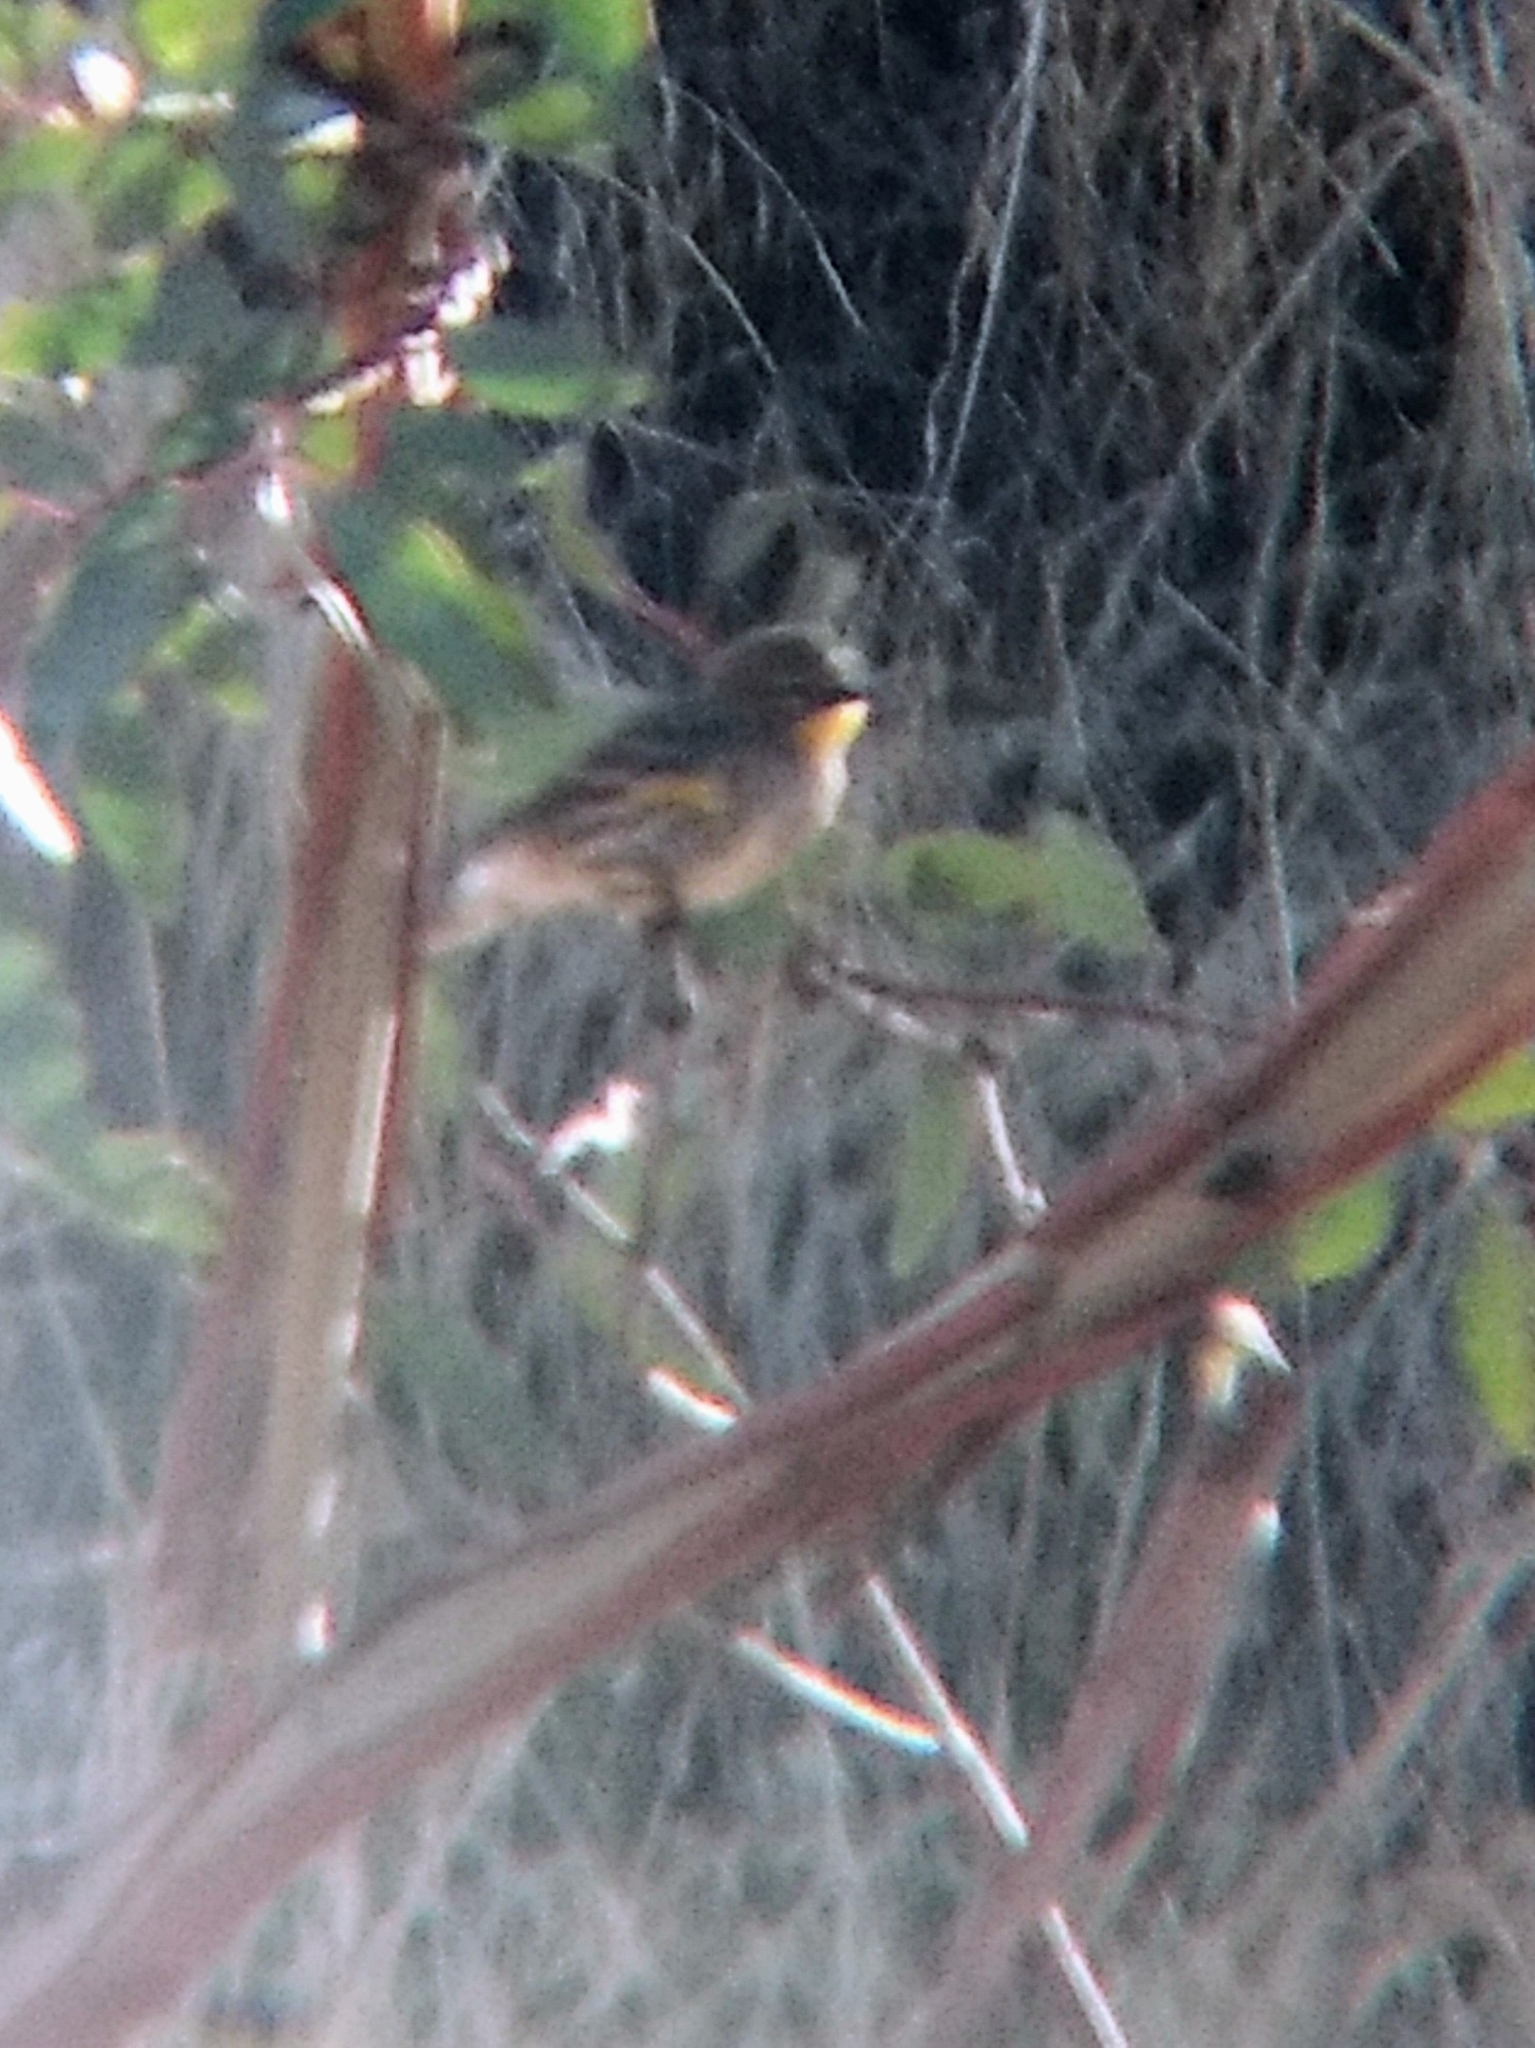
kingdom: Animalia
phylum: Chordata
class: Aves
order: Passeriformes
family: Parulidae
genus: Setophaga
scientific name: Setophaga coronata
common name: Myrtle warbler
